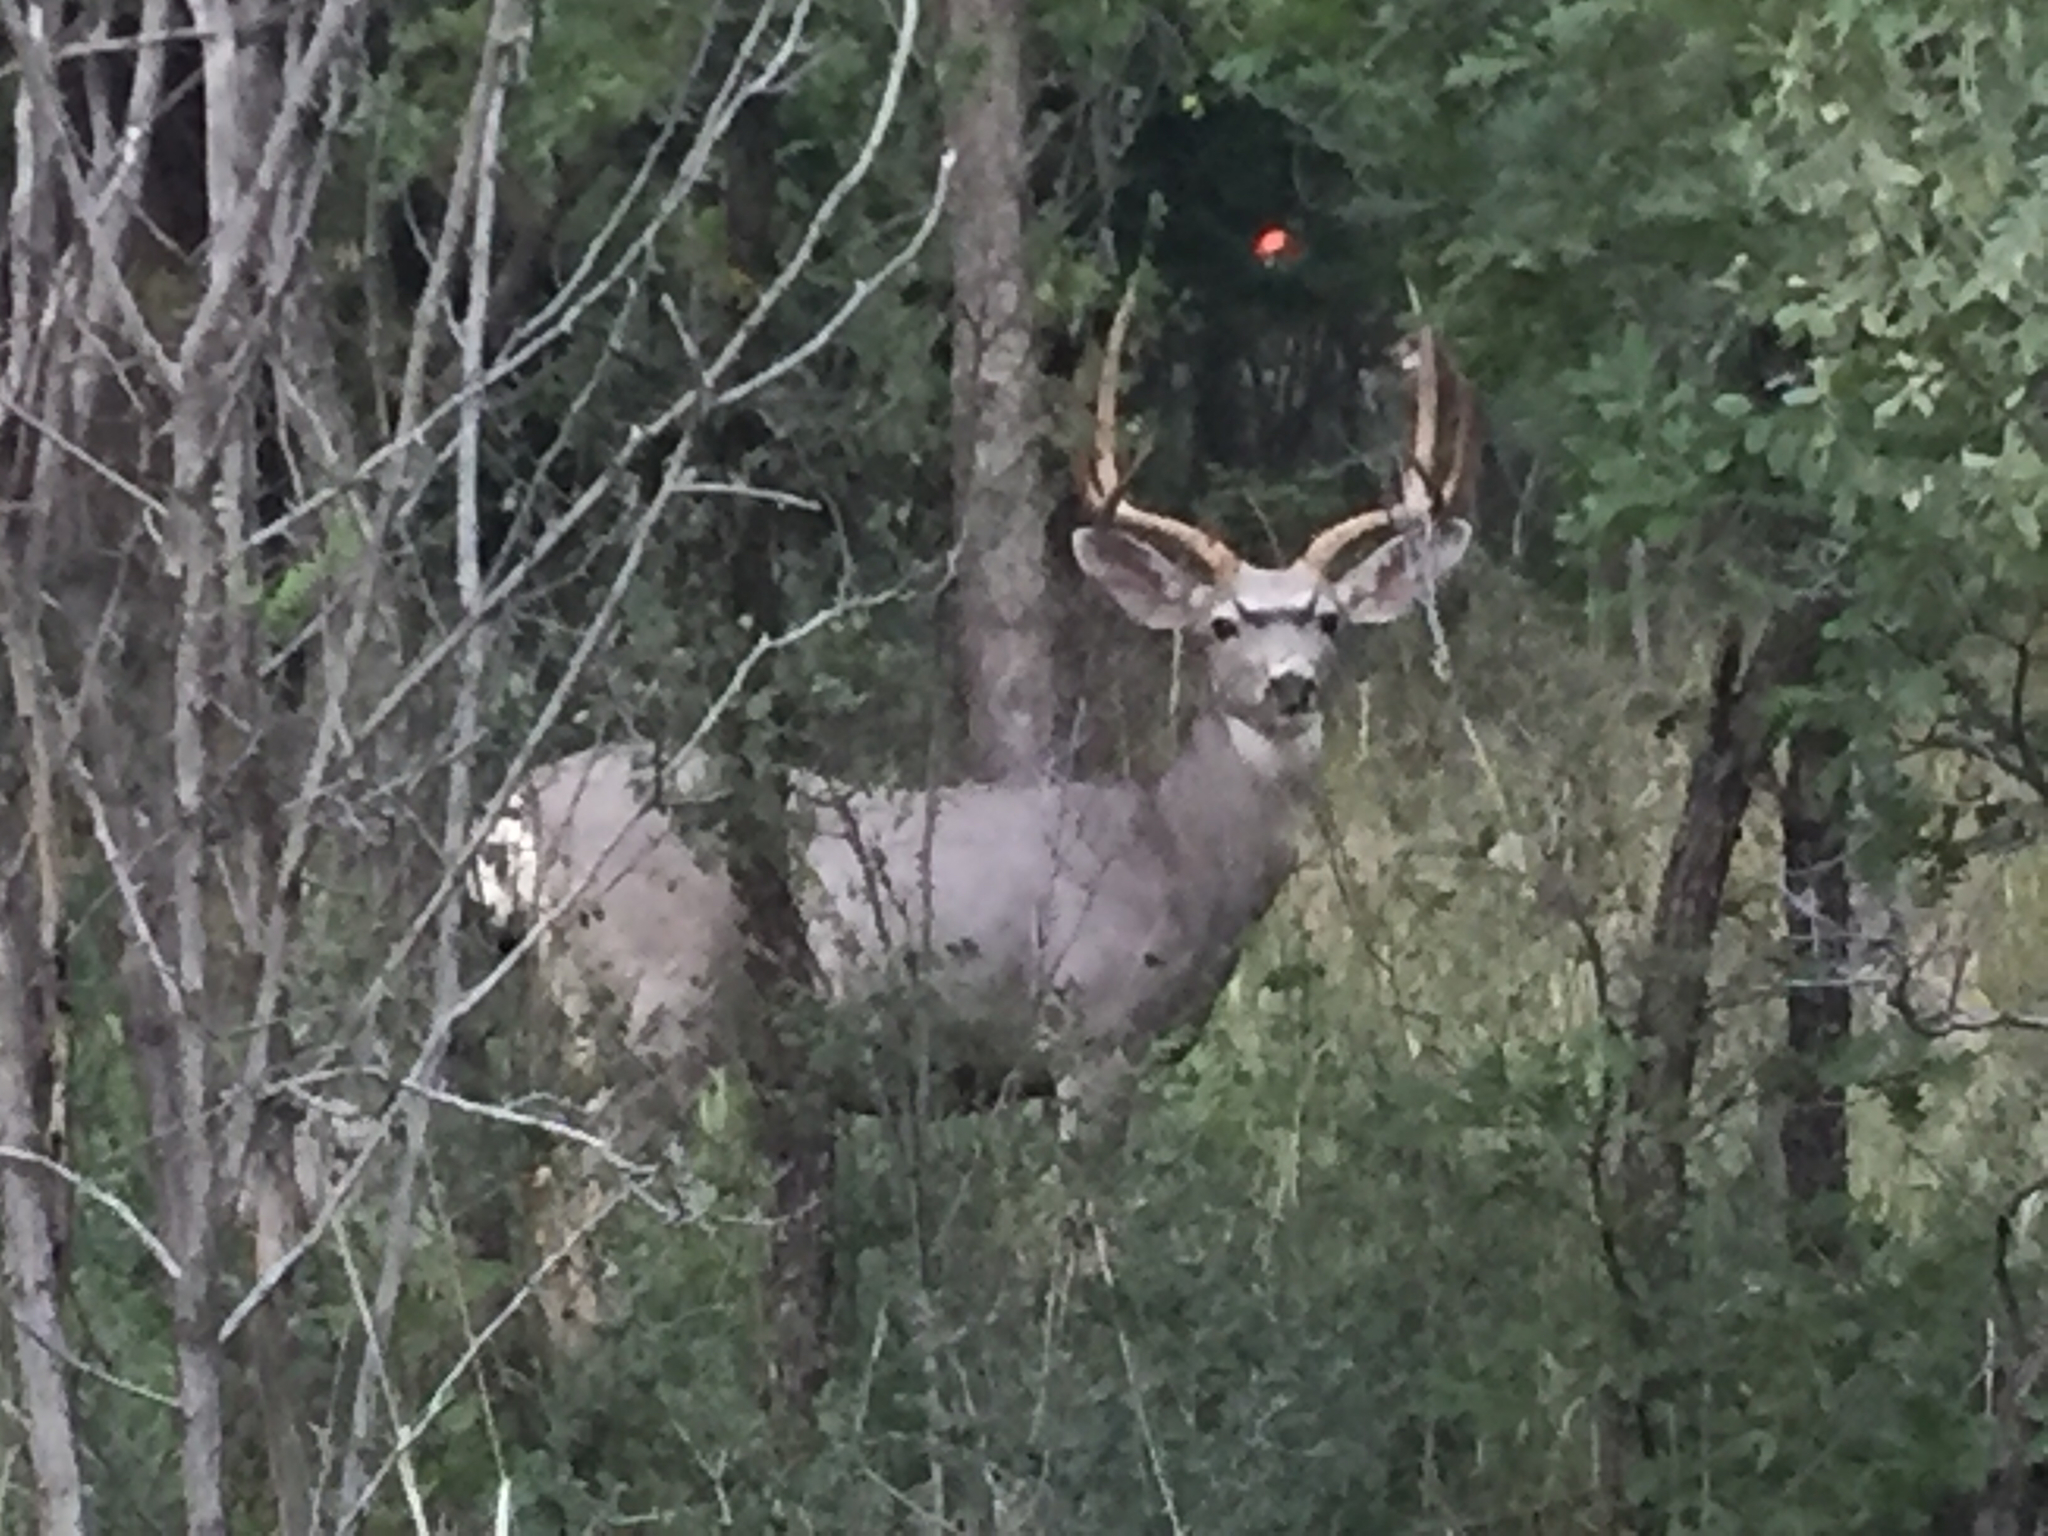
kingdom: Animalia
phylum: Chordata
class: Mammalia
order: Artiodactyla
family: Cervidae
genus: Odocoileus
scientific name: Odocoileus hemionus
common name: Mule deer
